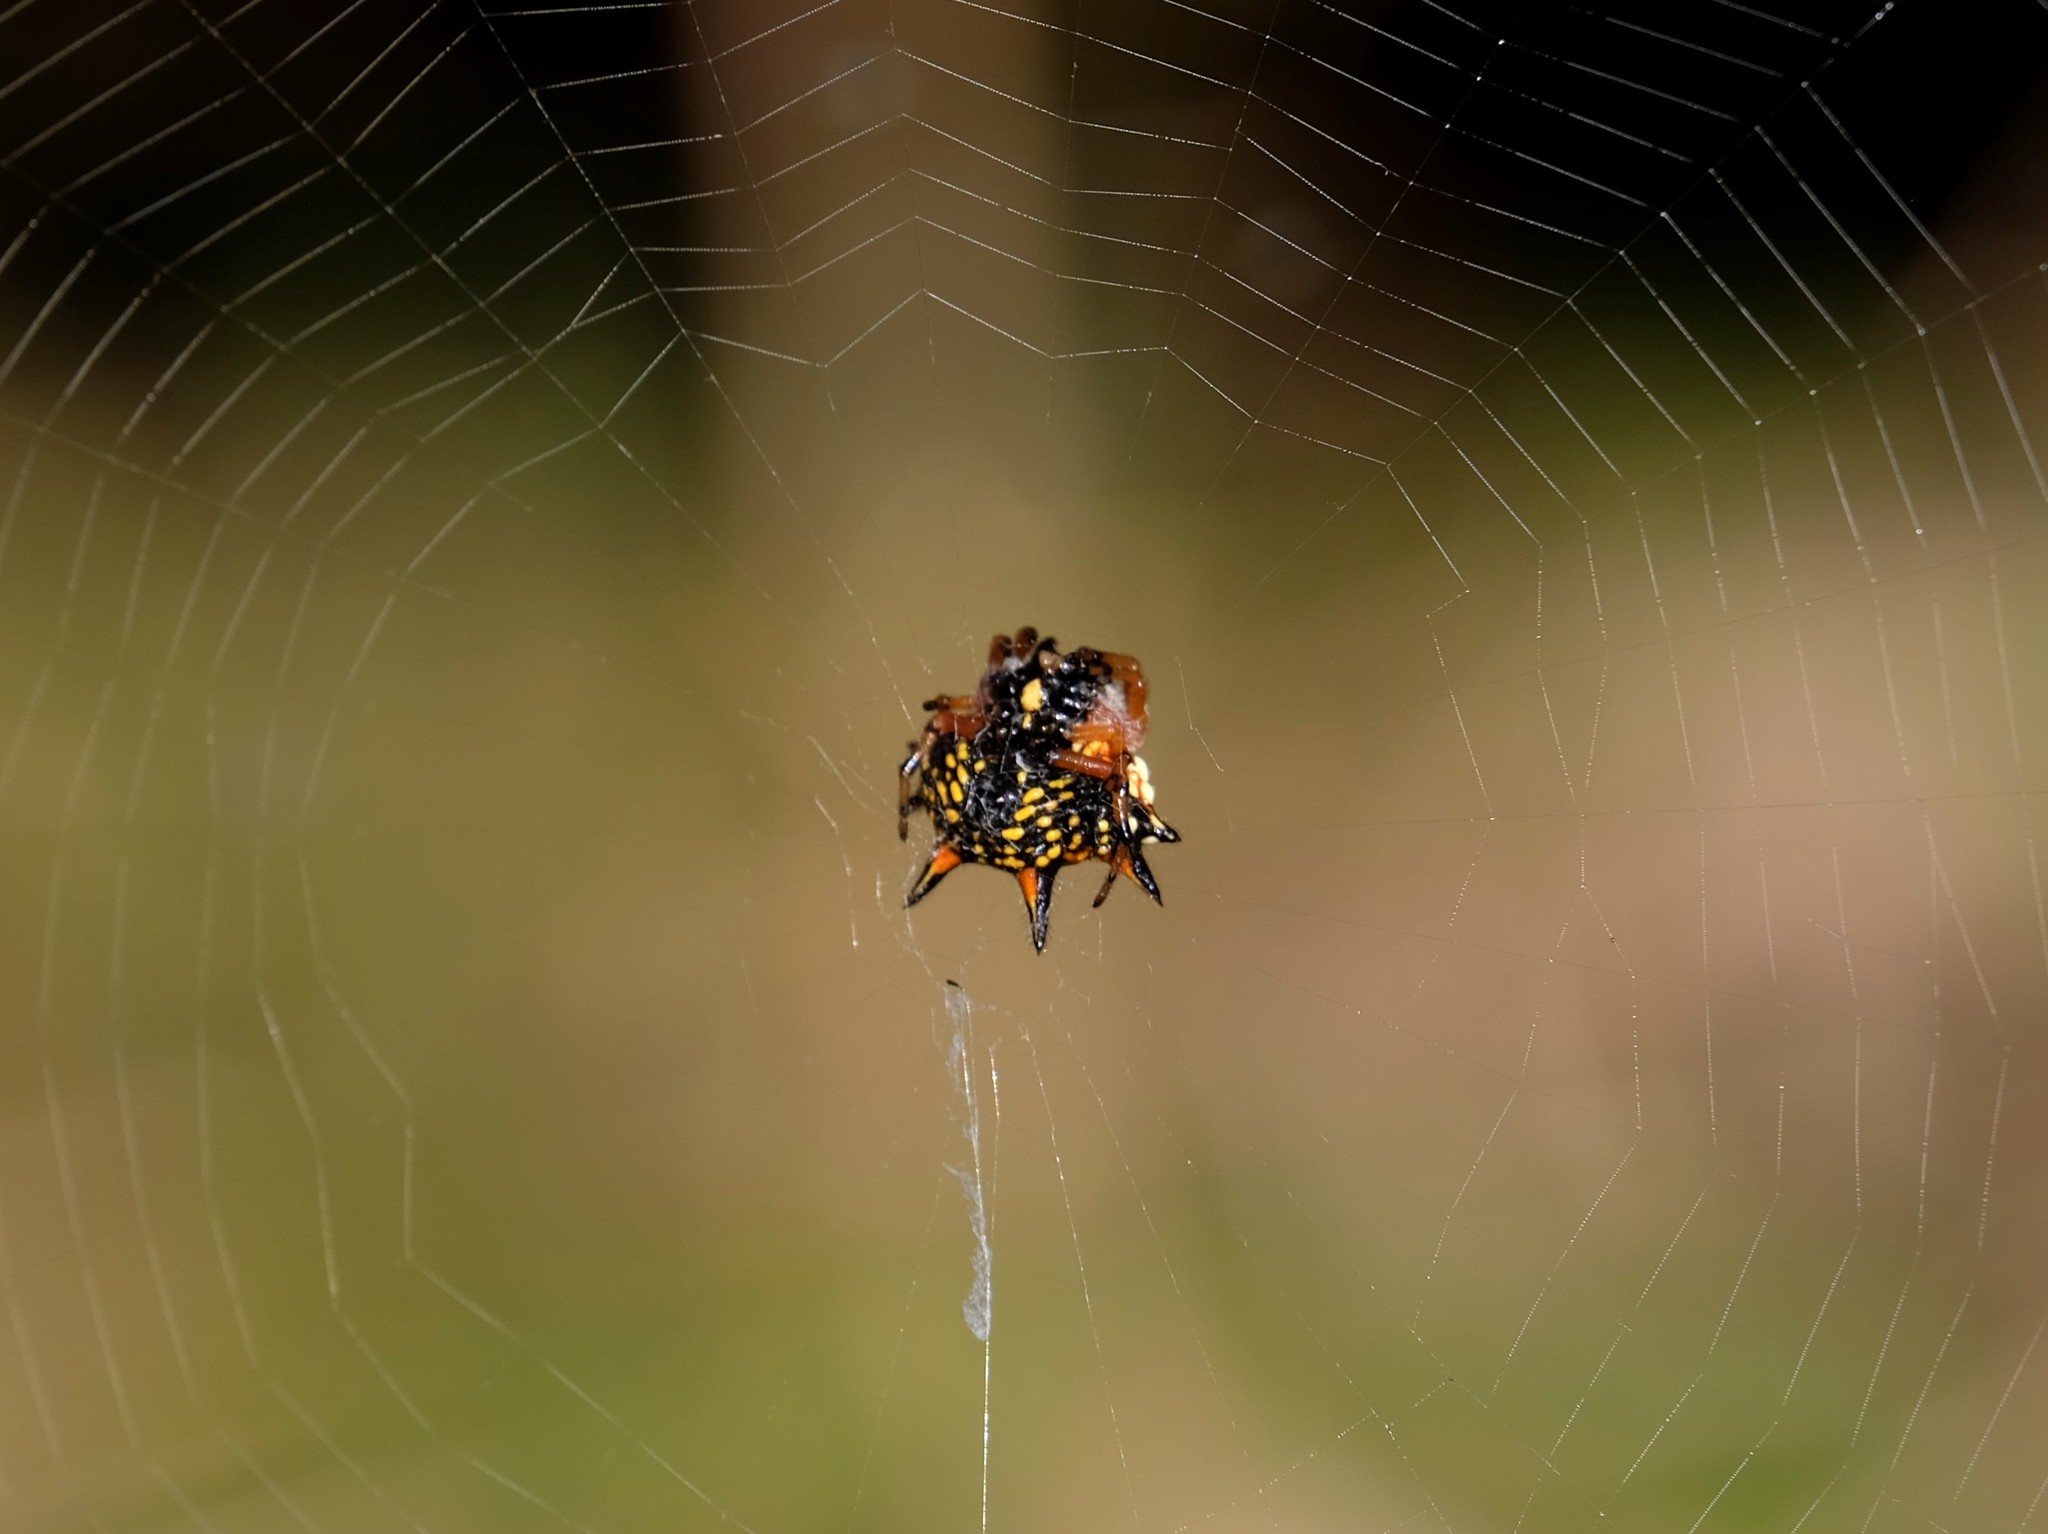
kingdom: Animalia
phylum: Arthropoda
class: Arachnida
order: Araneae
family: Araneidae
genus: Austracantha
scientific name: Austracantha minax
